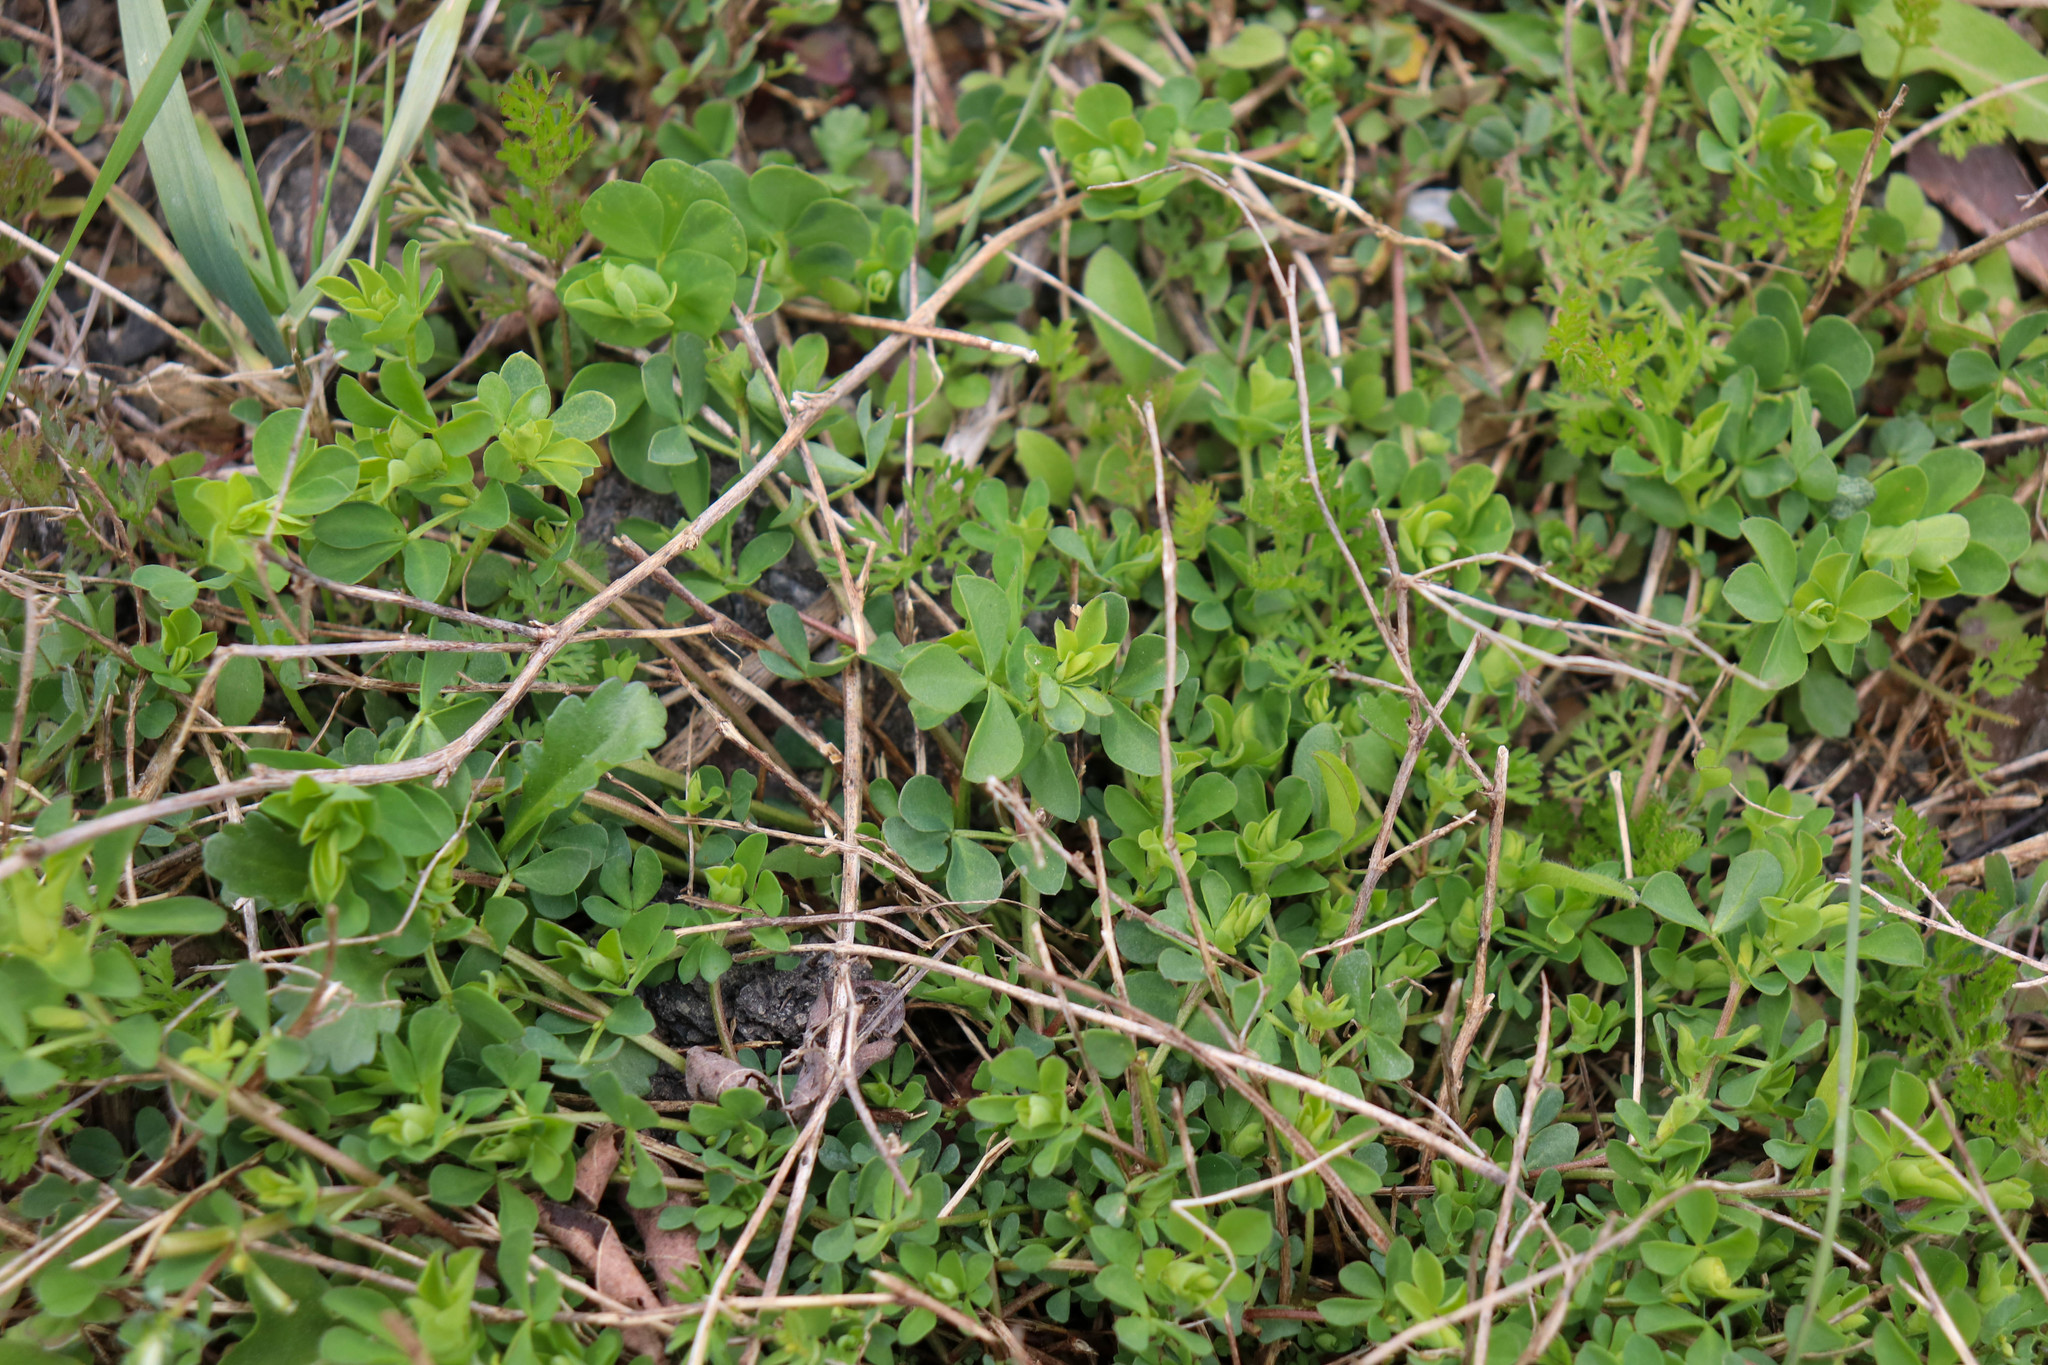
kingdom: Plantae
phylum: Tracheophyta
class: Magnoliopsida
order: Fabales
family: Fabaceae
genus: Lotus
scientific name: Lotus corniculatus
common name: Common bird's-foot-trefoil
